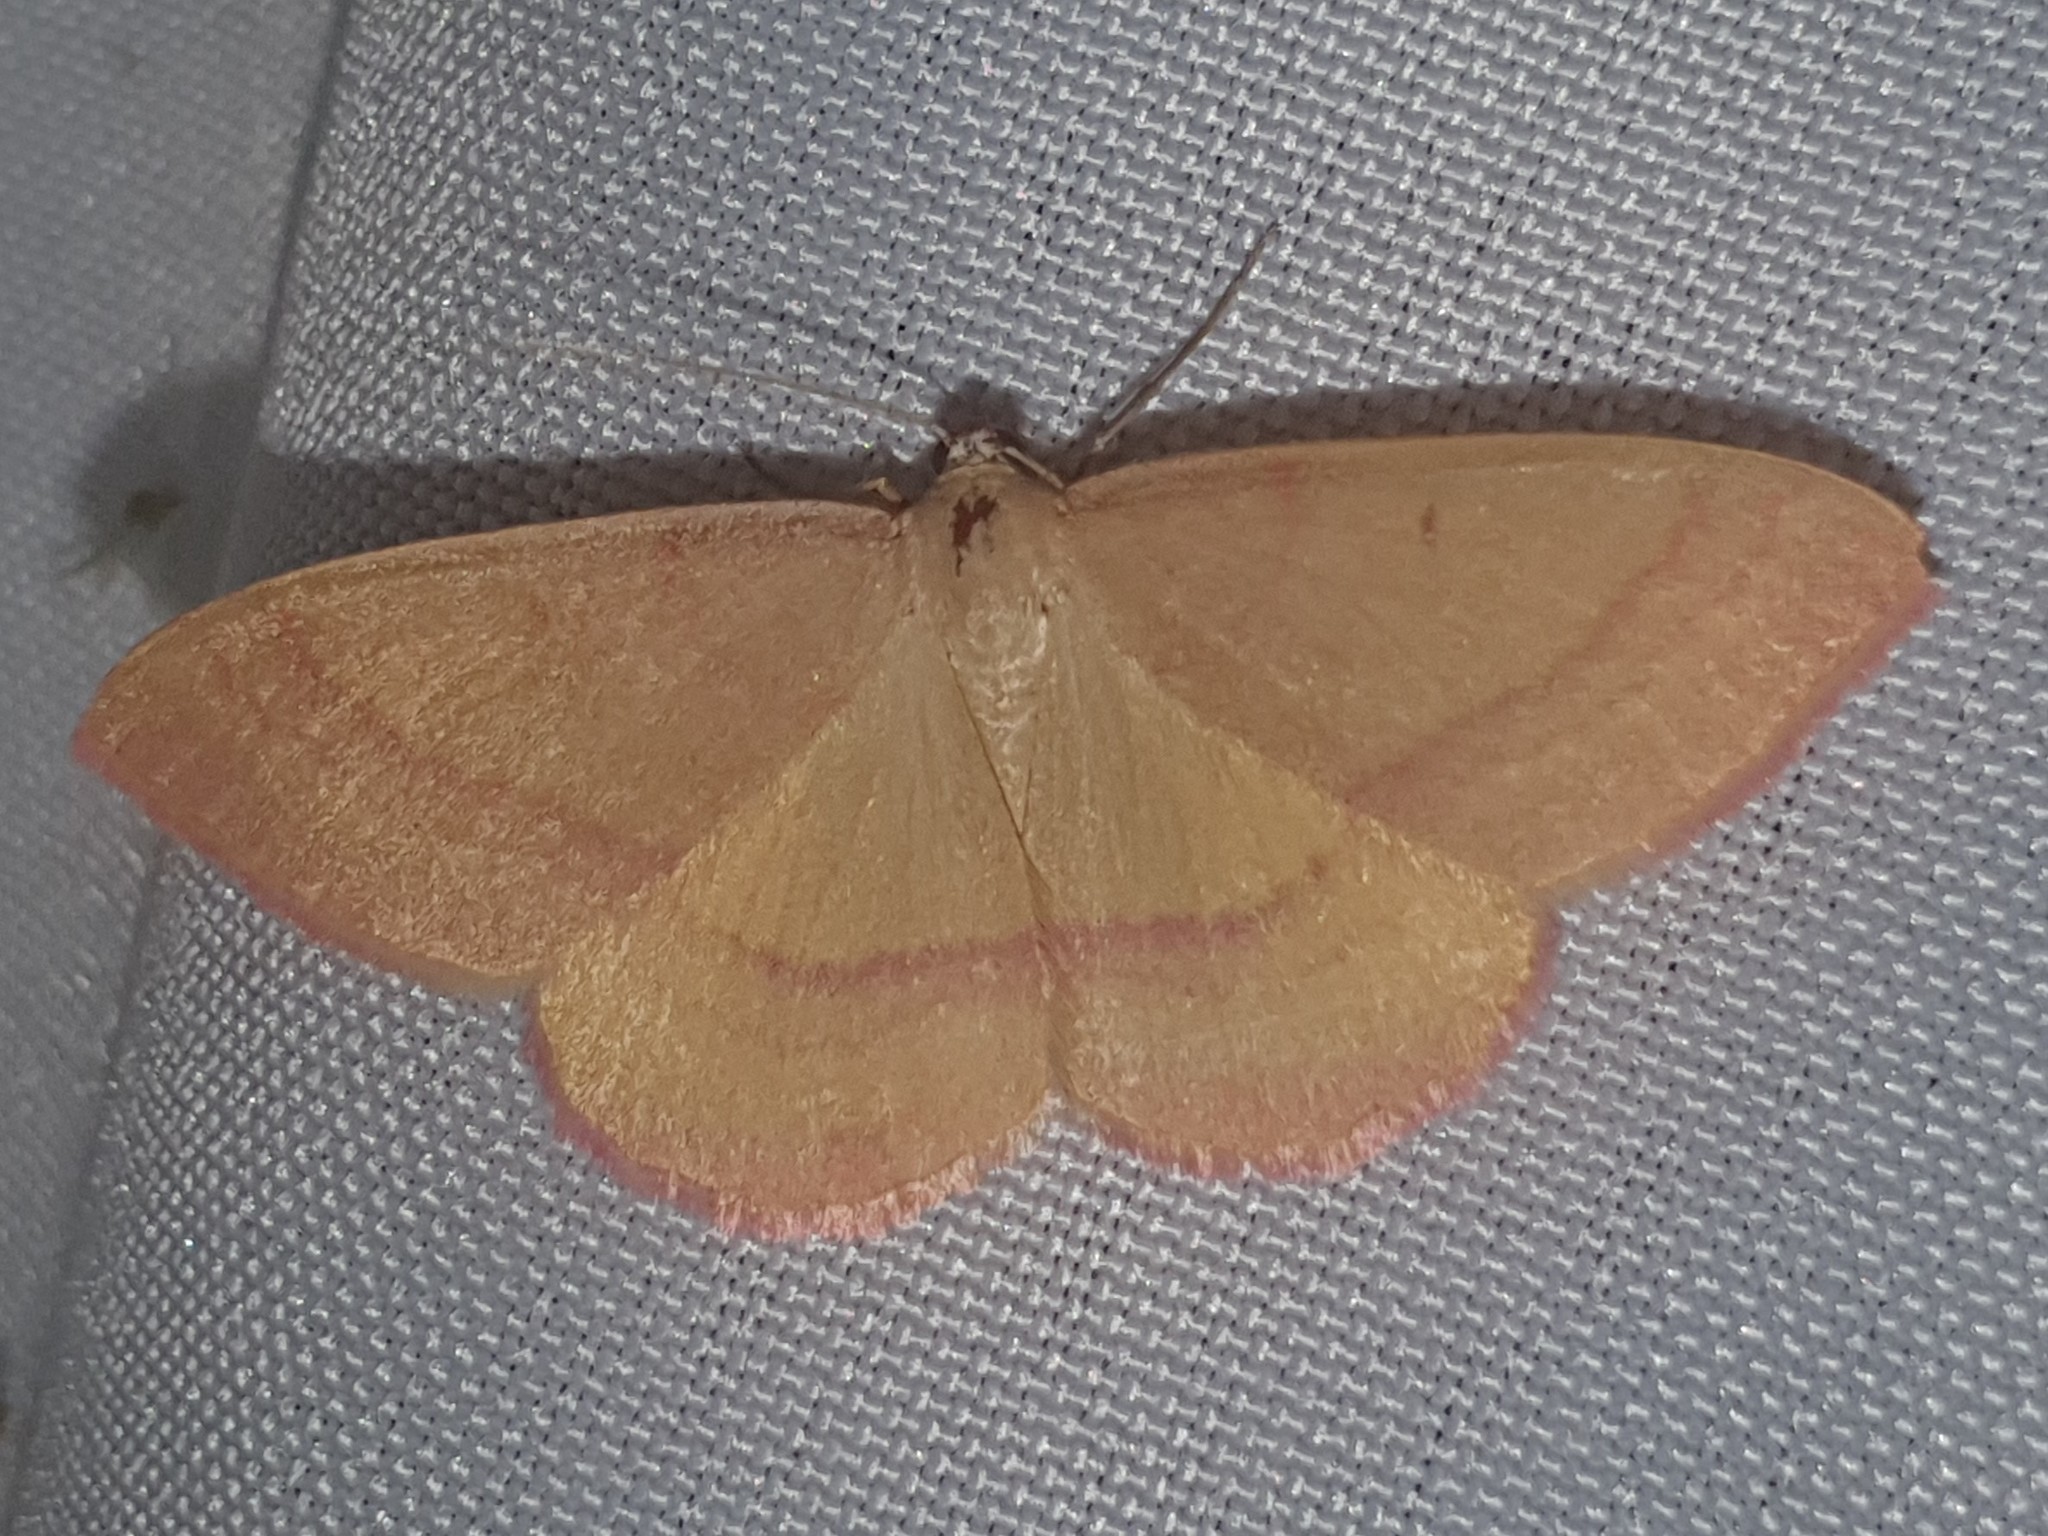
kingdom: Animalia
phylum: Arthropoda
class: Insecta
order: Lepidoptera
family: Geometridae
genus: Rhodostrophia
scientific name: Rhodostrophia calabra
